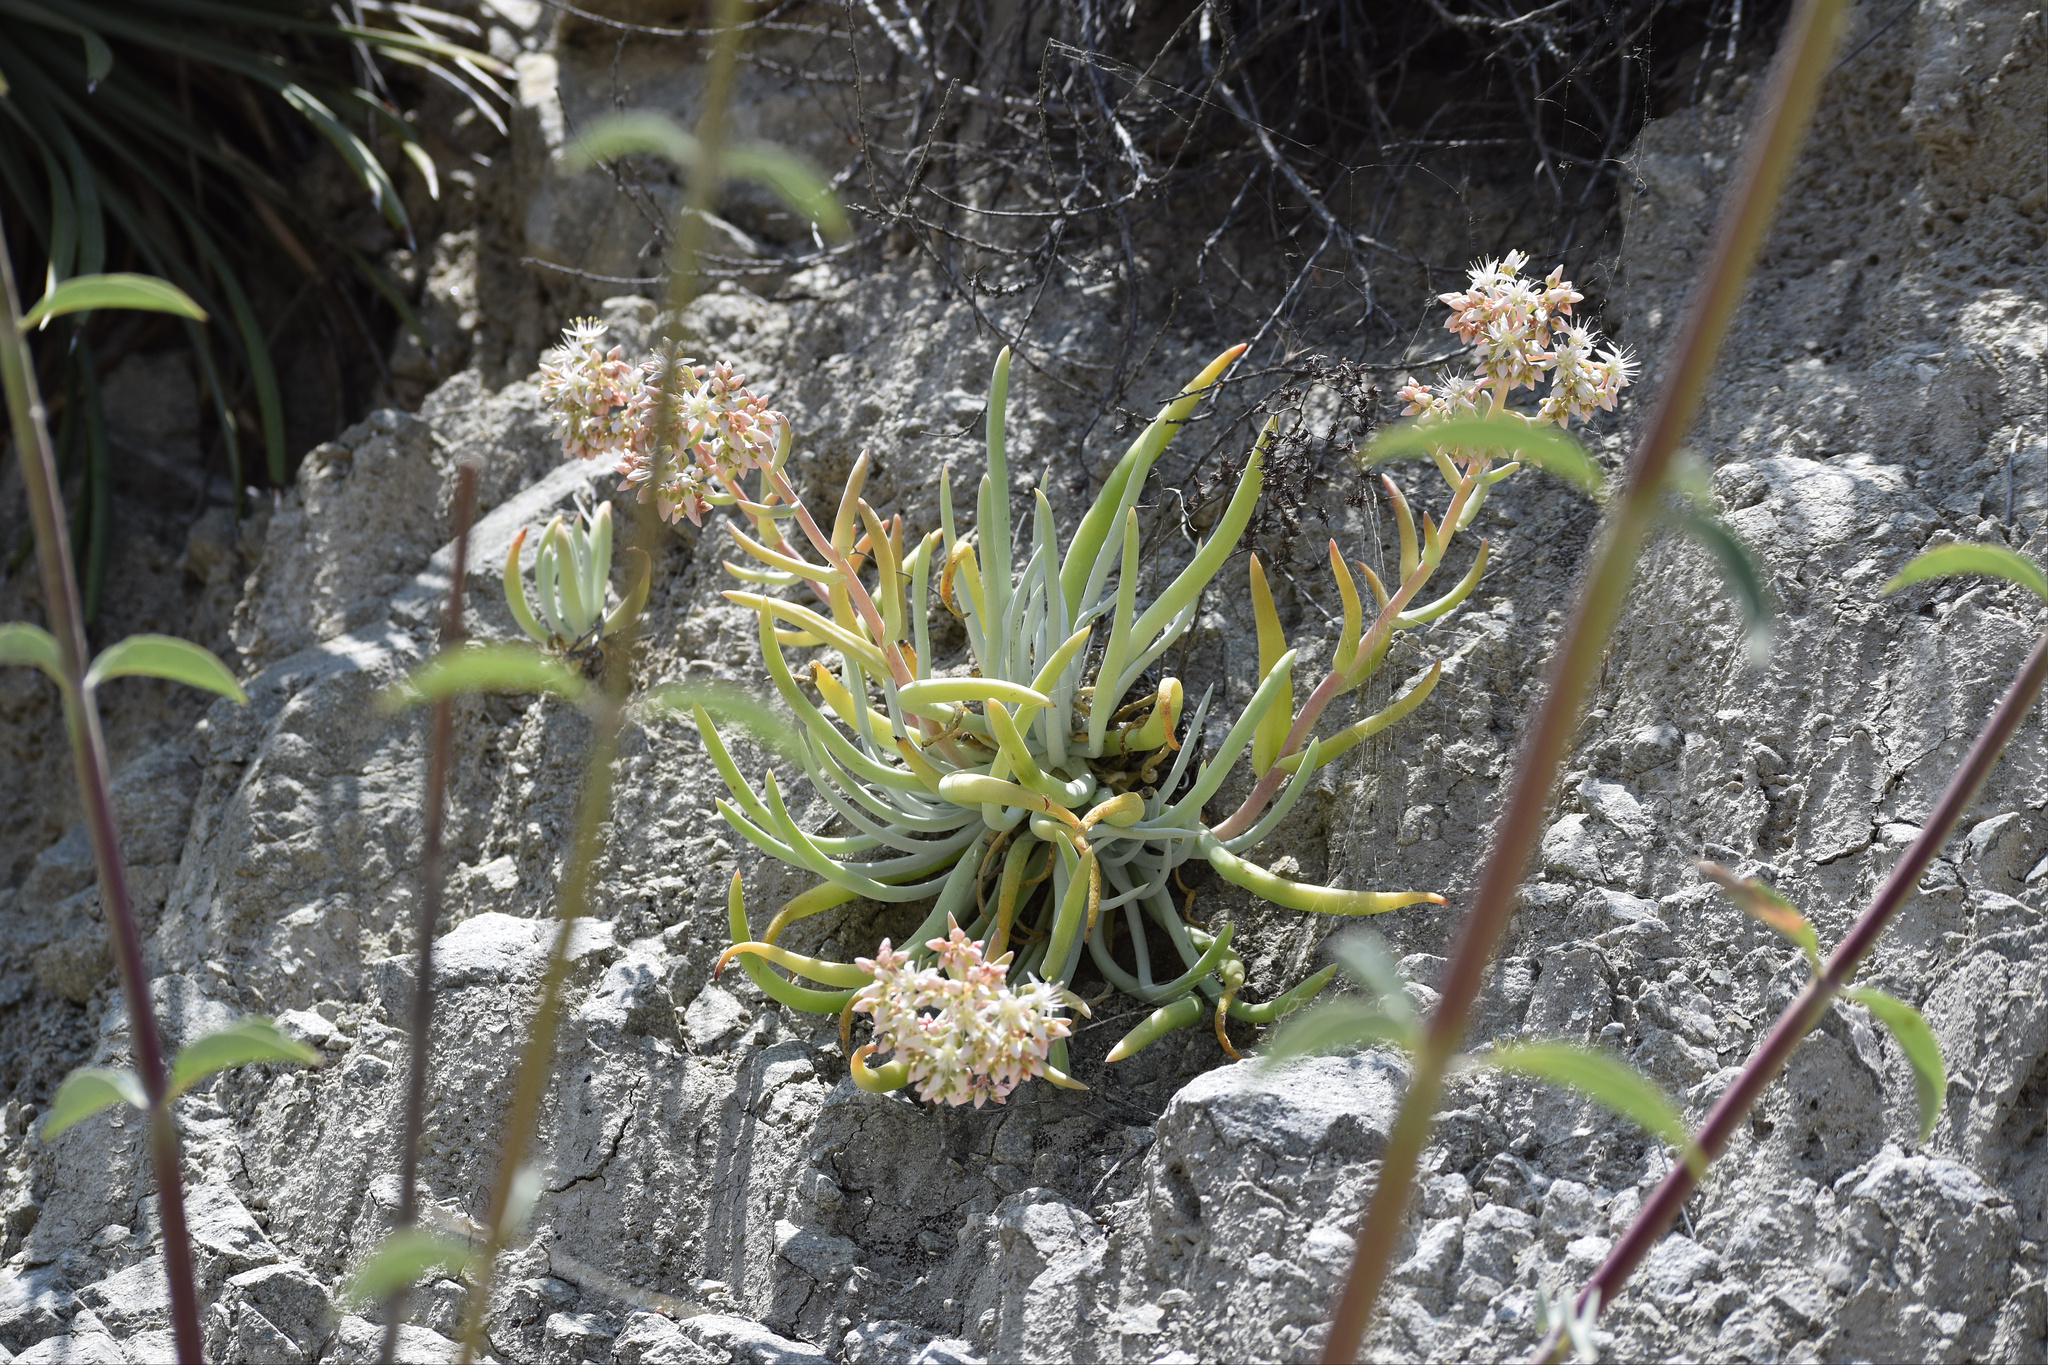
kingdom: Plantae
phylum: Tracheophyta
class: Magnoliopsida
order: Saxifragales
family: Crassulaceae
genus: Dudleya
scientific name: Dudleya densiflora
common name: San gabriel mountains dudleya
